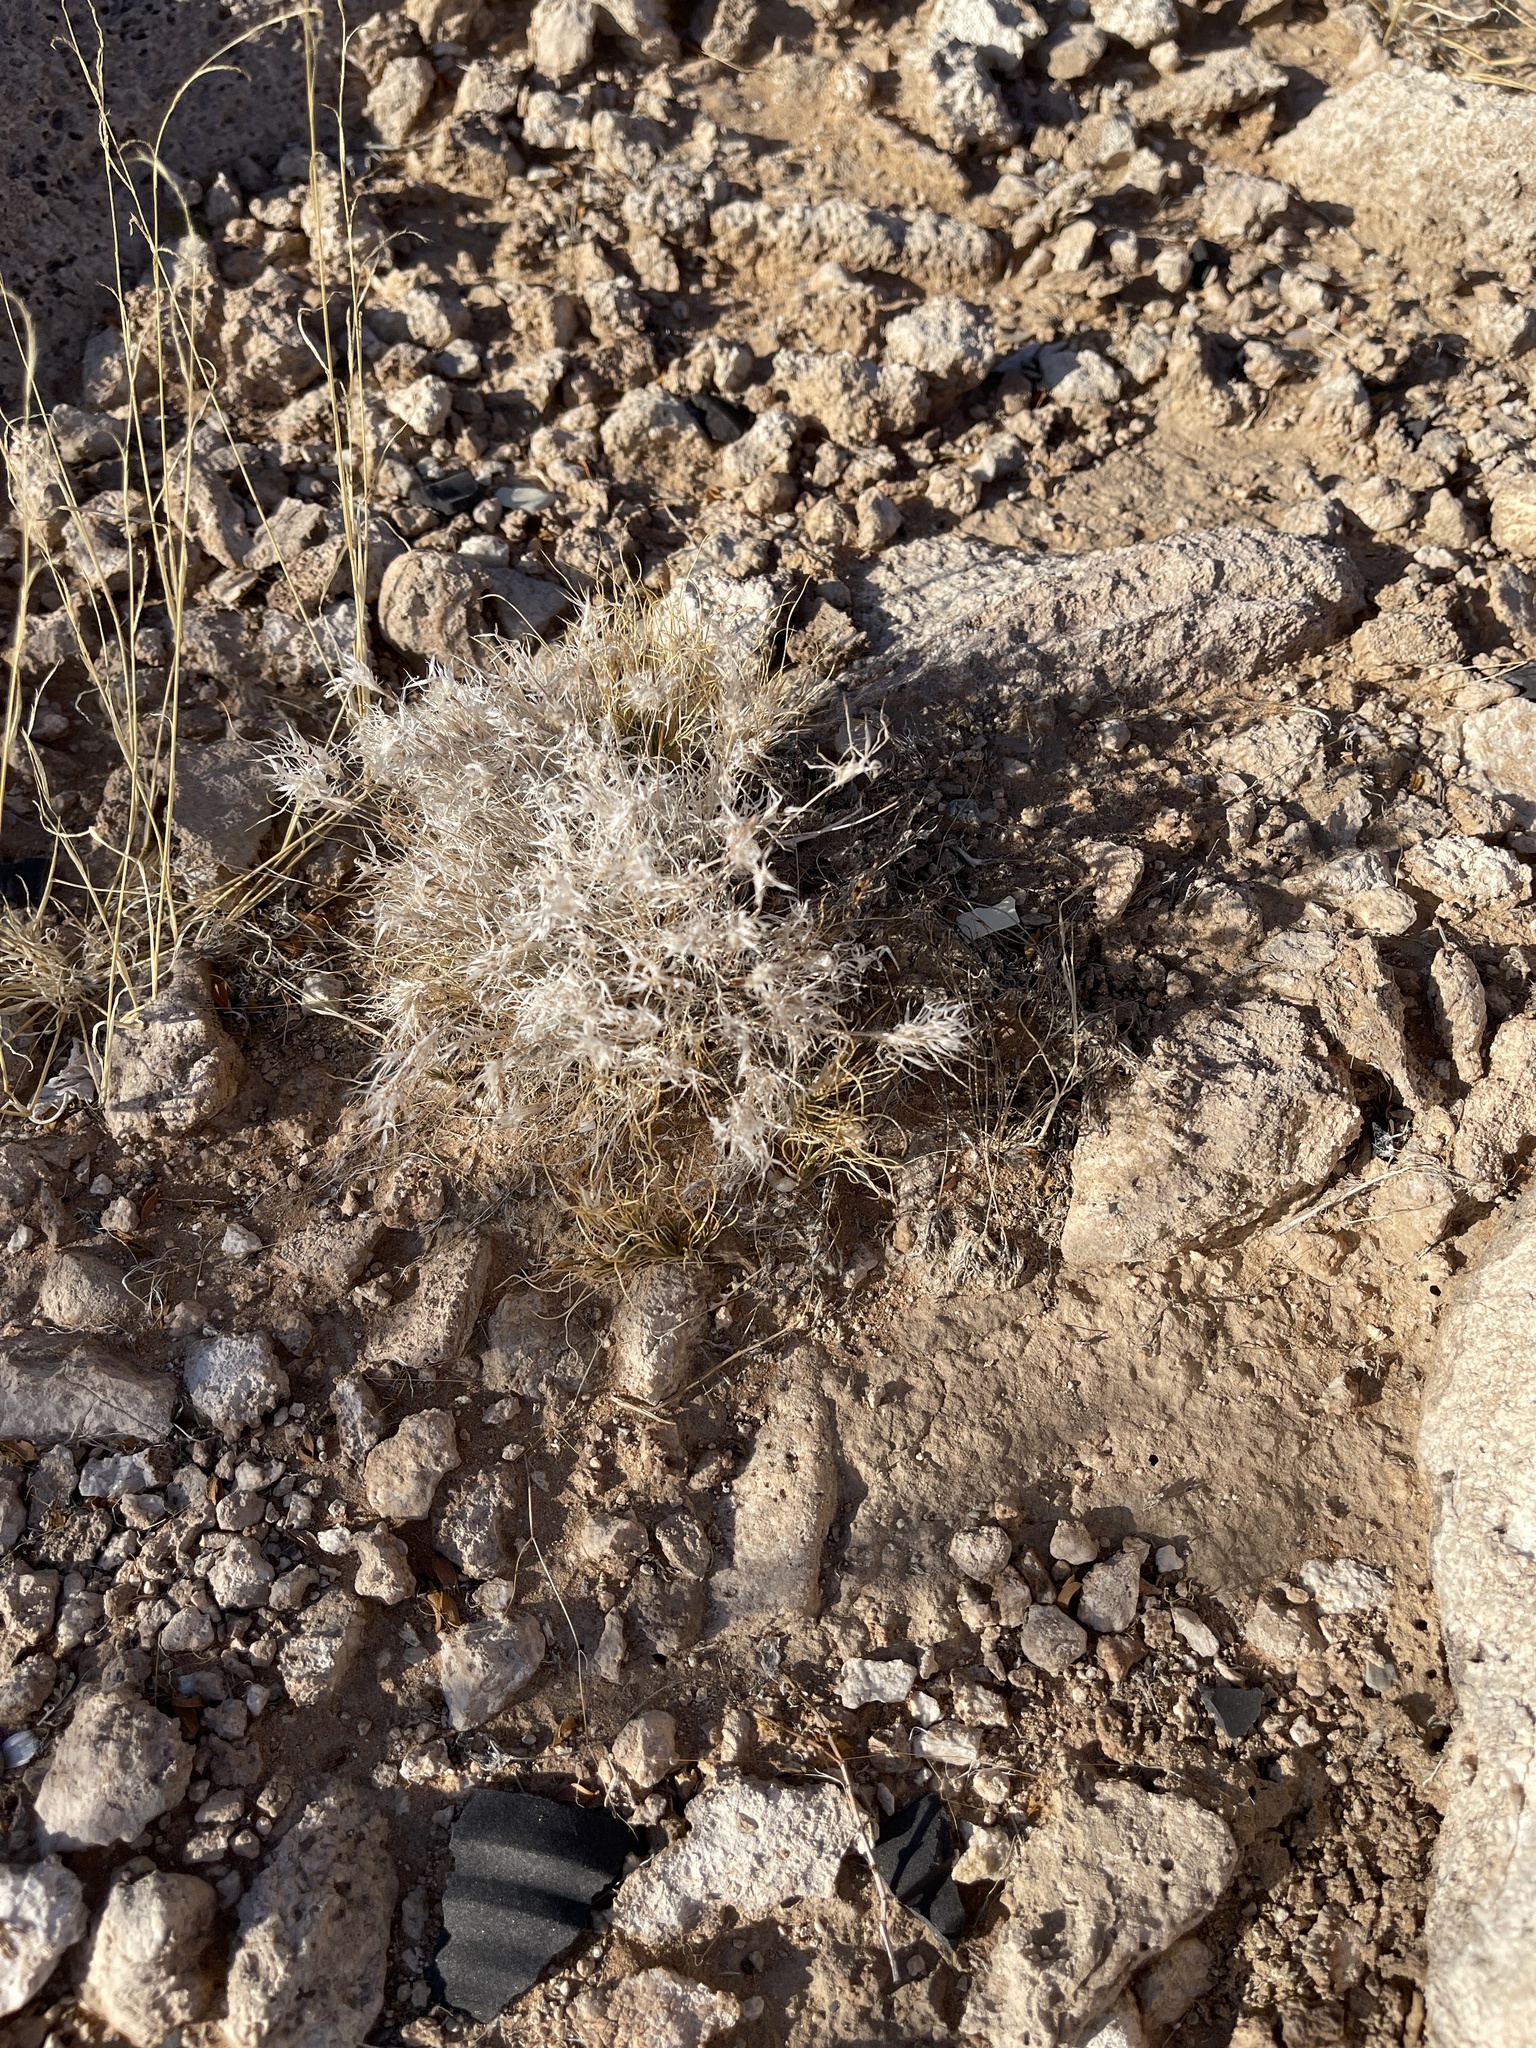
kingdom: Plantae
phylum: Tracheophyta
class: Liliopsida
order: Poales
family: Poaceae
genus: Dasyochloa
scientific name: Dasyochloa pulchella
